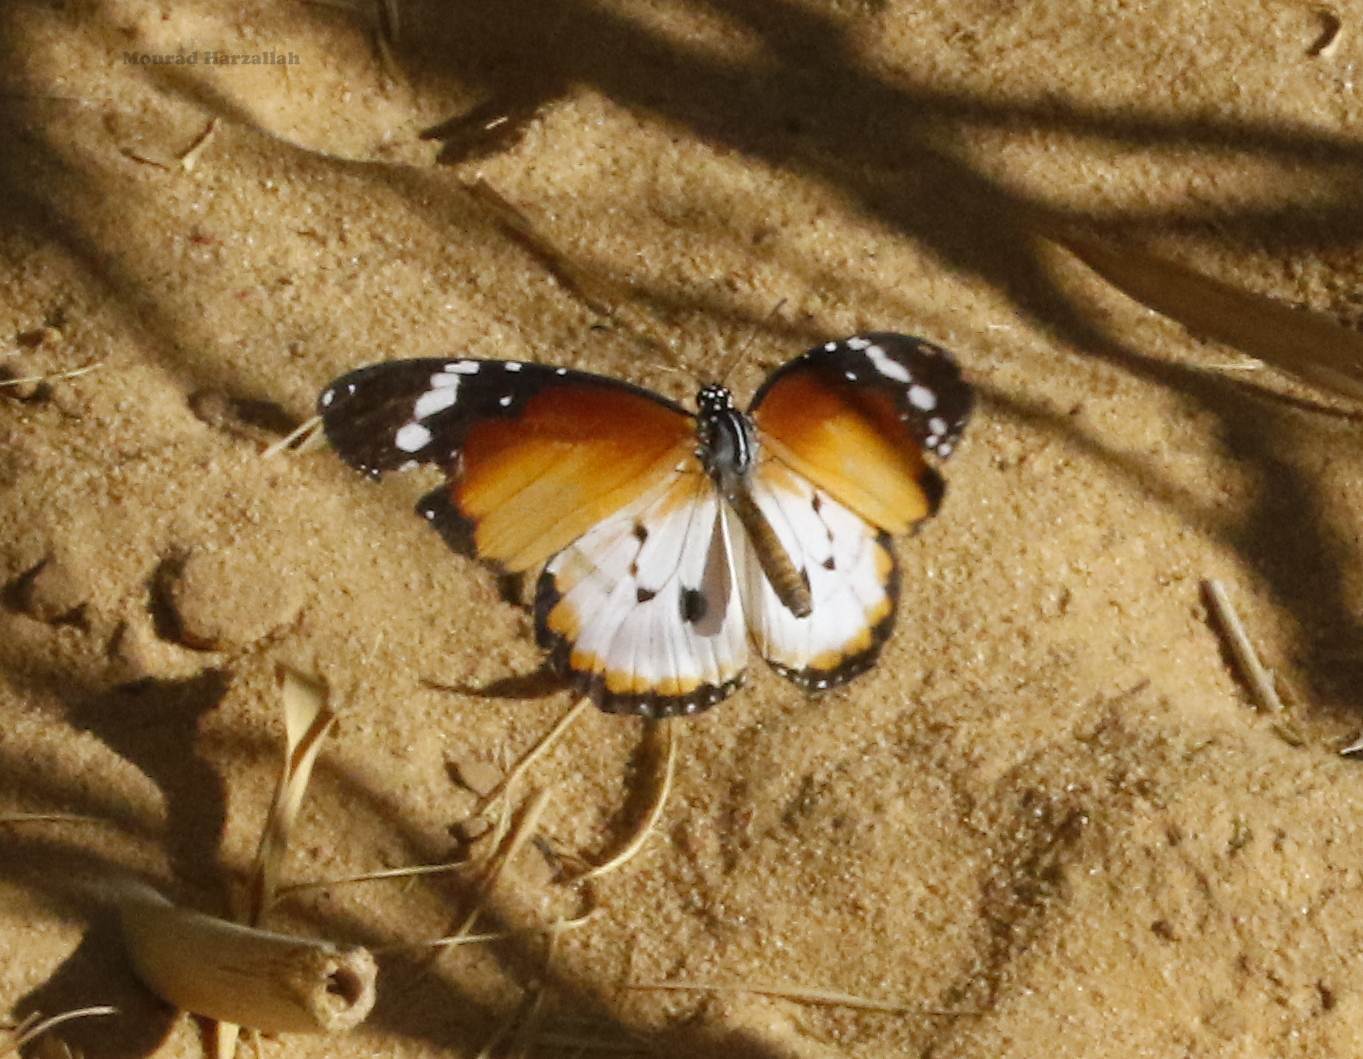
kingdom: Animalia
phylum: Arthropoda
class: Insecta
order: Lepidoptera
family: Nymphalidae
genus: Danaus
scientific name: Danaus chrysippus
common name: Plain tiger
